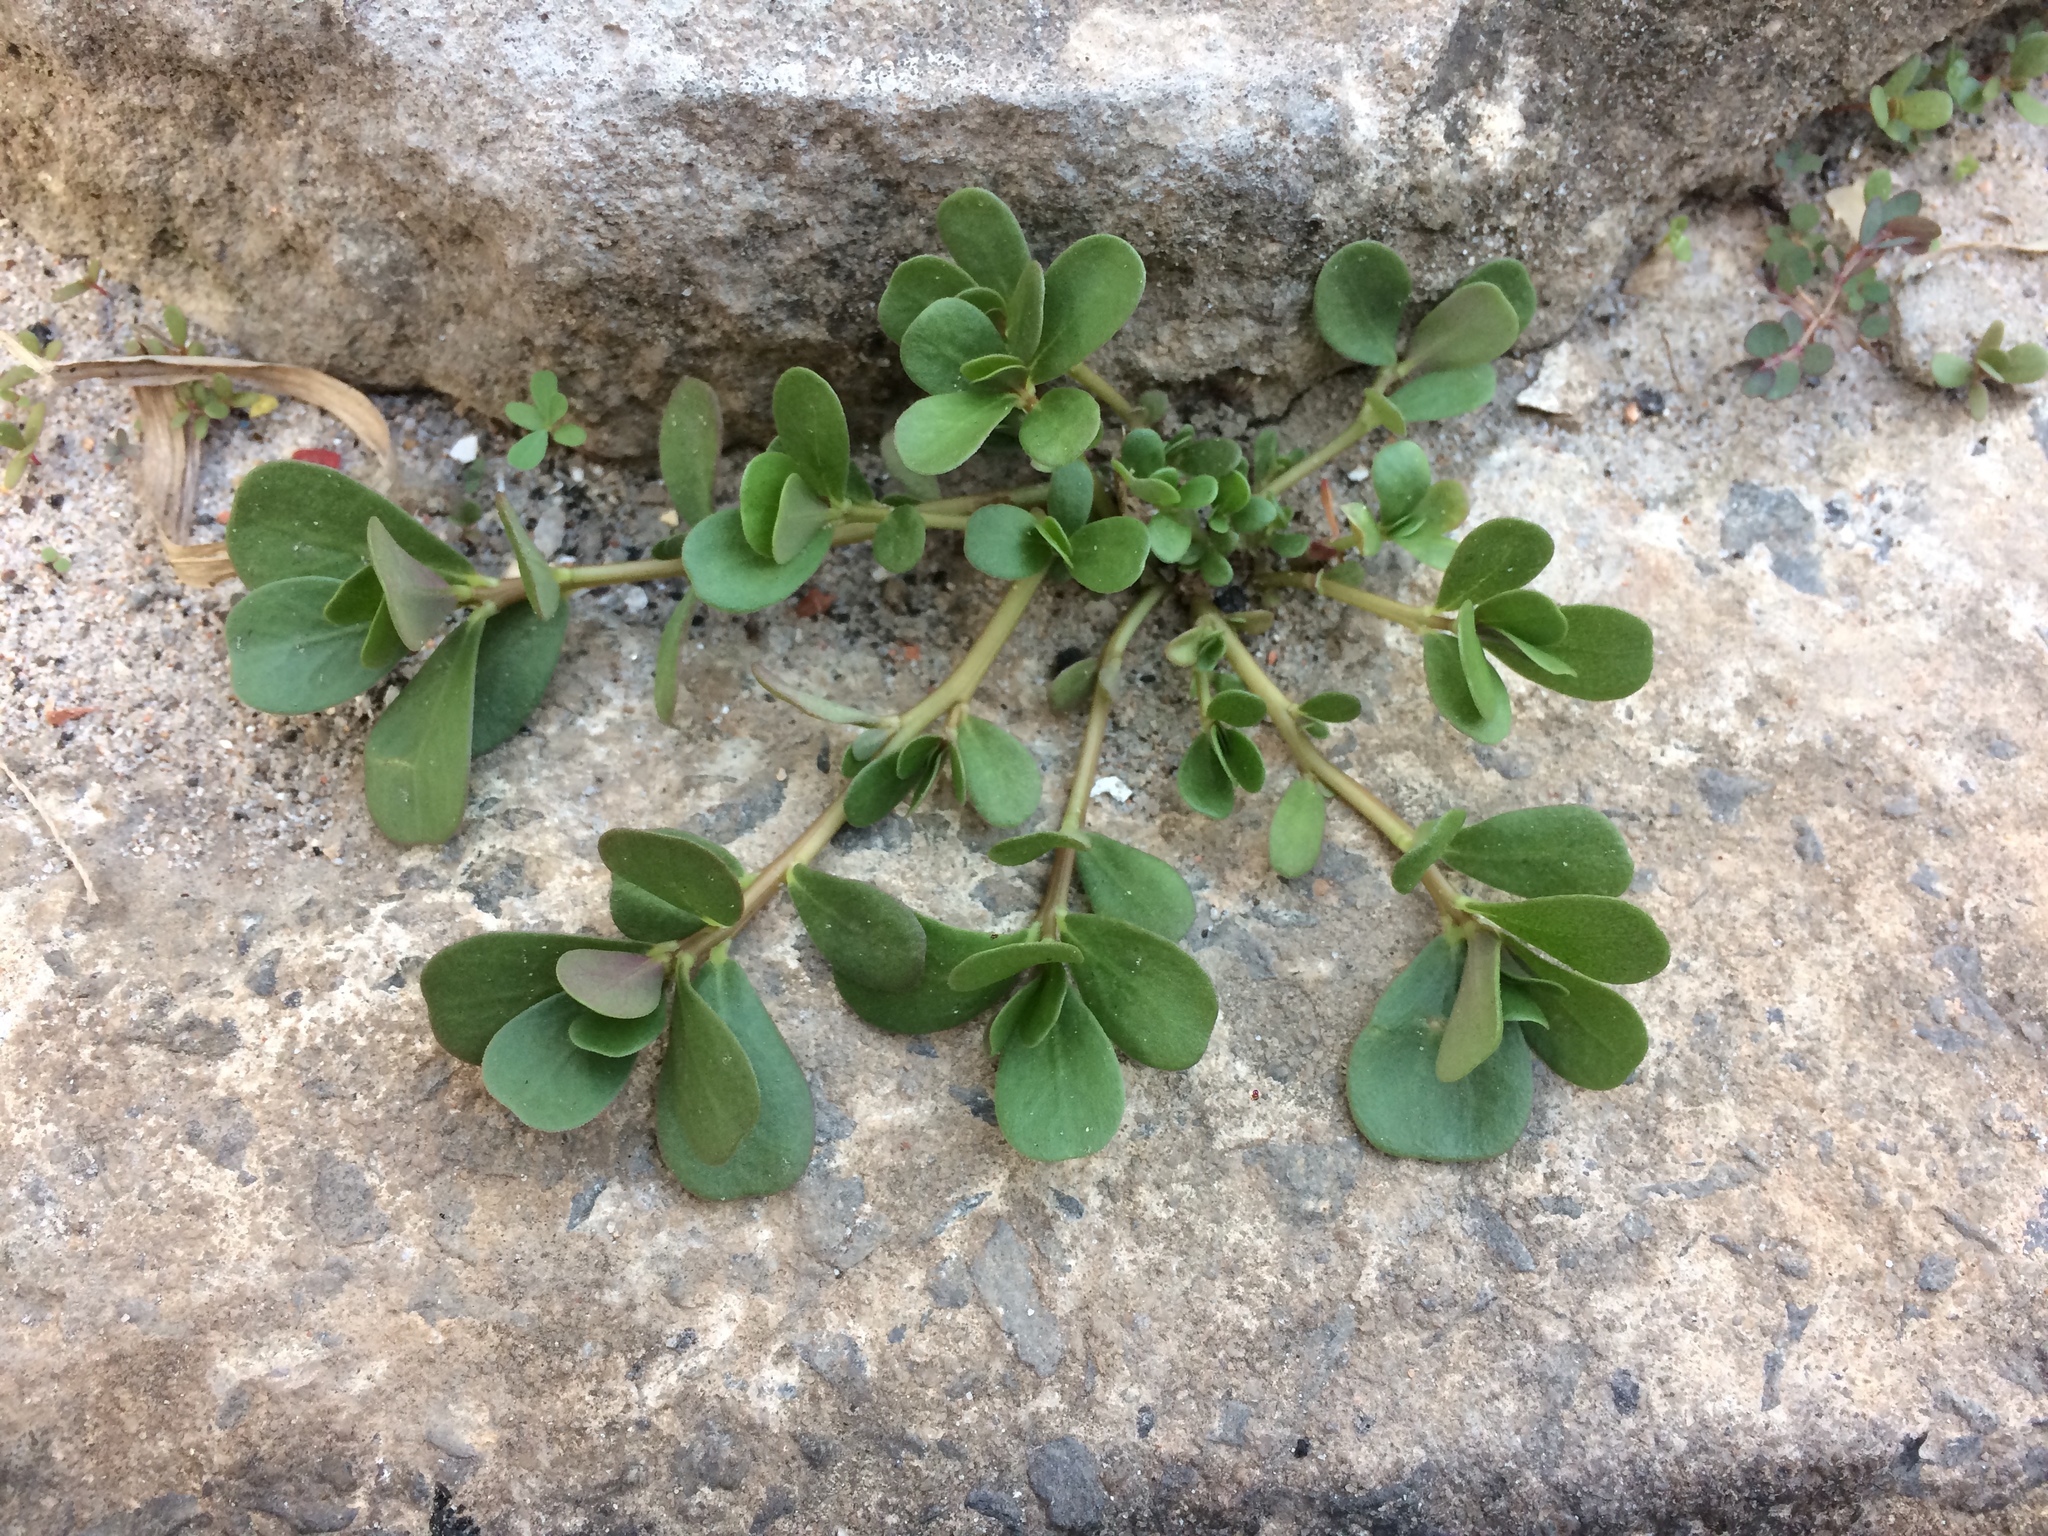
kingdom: Plantae
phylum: Tracheophyta
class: Magnoliopsida
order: Caryophyllales
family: Portulacaceae
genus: Portulaca
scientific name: Portulaca oleracea
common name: Common purslane
